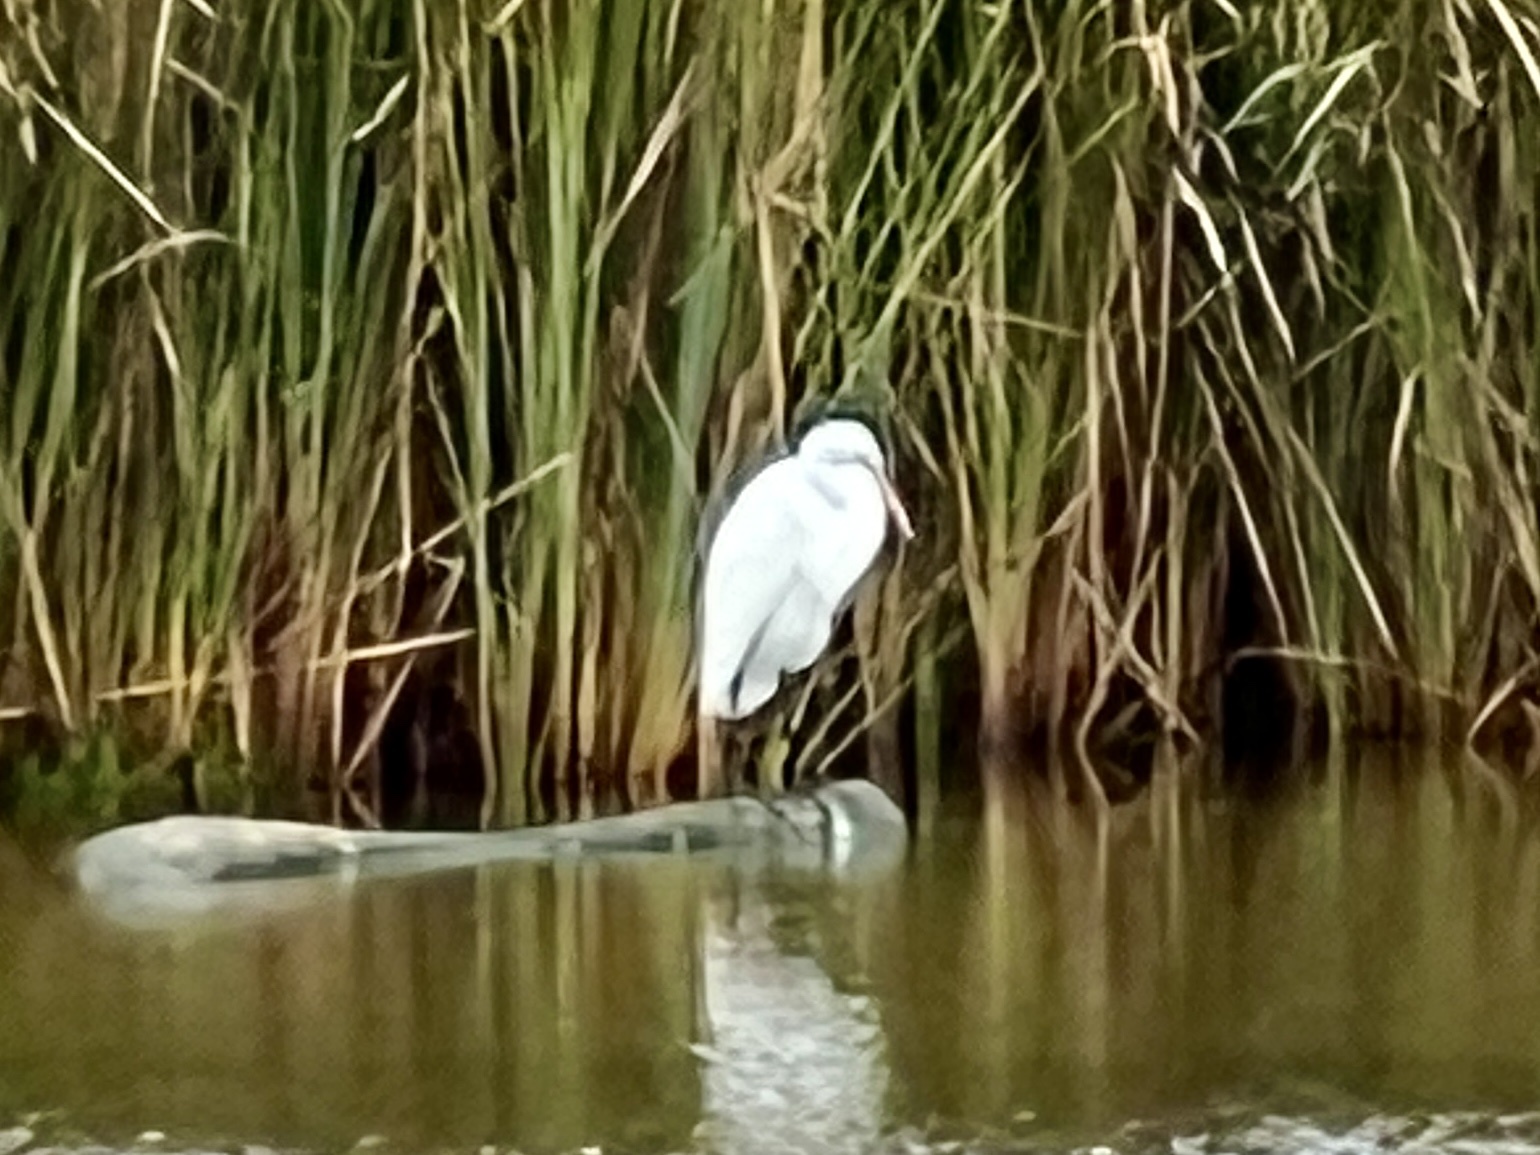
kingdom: Animalia
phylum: Chordata
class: Aves
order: Pelecaniformes
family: Ardeidae
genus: Ardea
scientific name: Ardea alba
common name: Great egret
